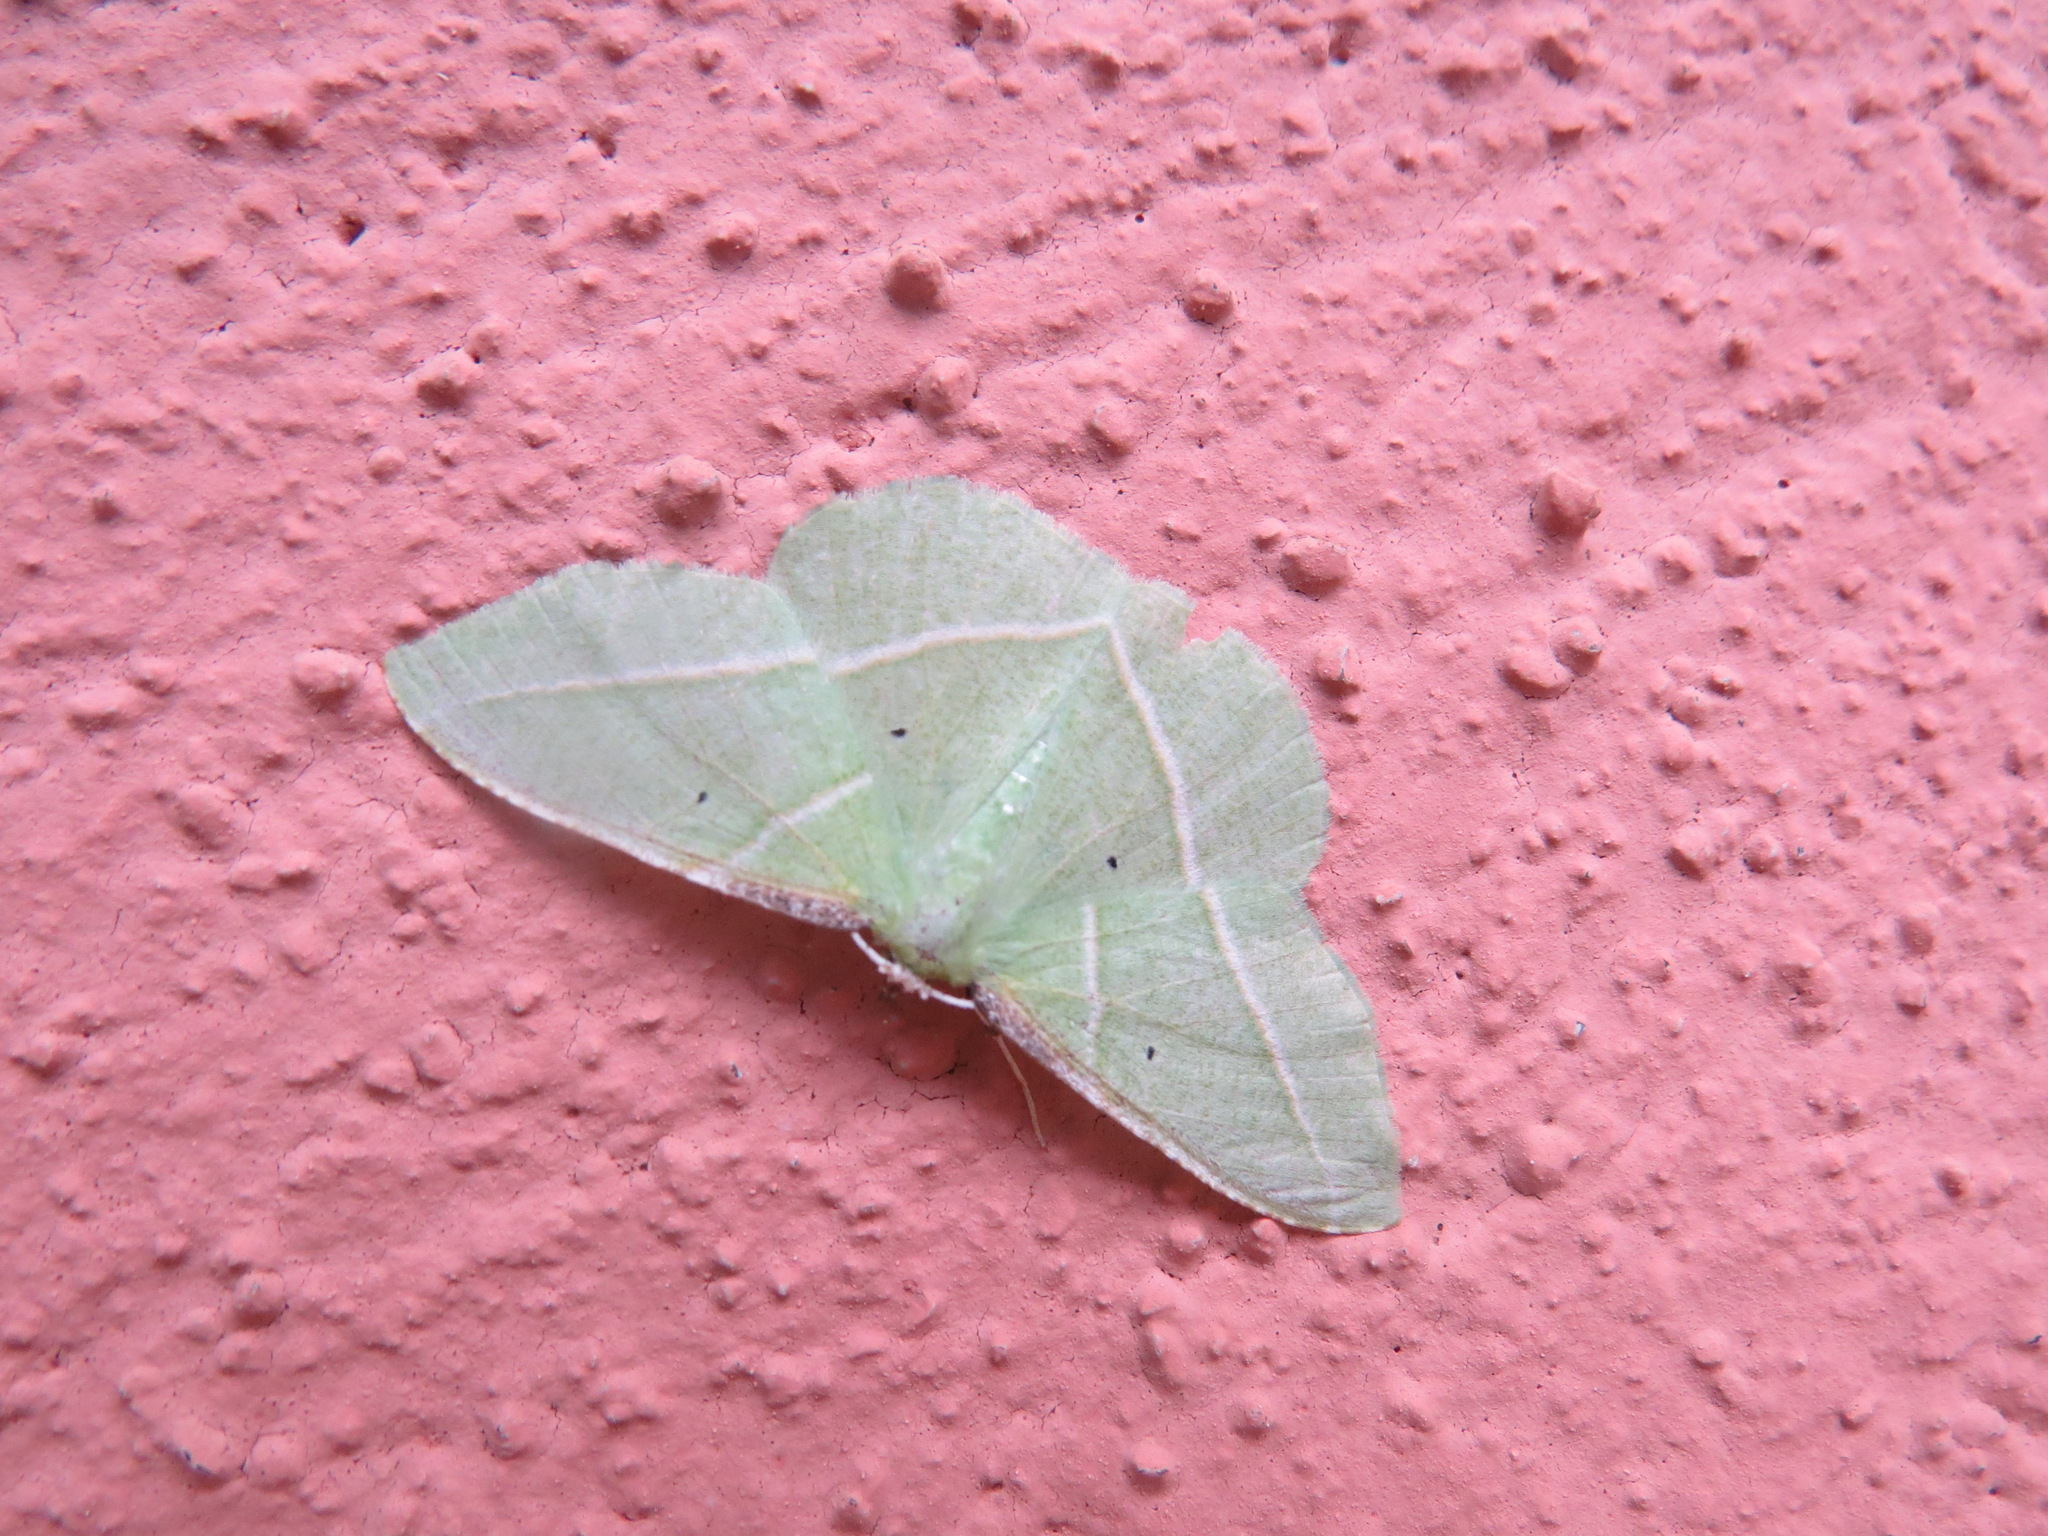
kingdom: Animalia
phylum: Arthropoda
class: Insecta
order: Lepidoptera
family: Geometridae
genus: Dichorda
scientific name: Dichorda illustraria
